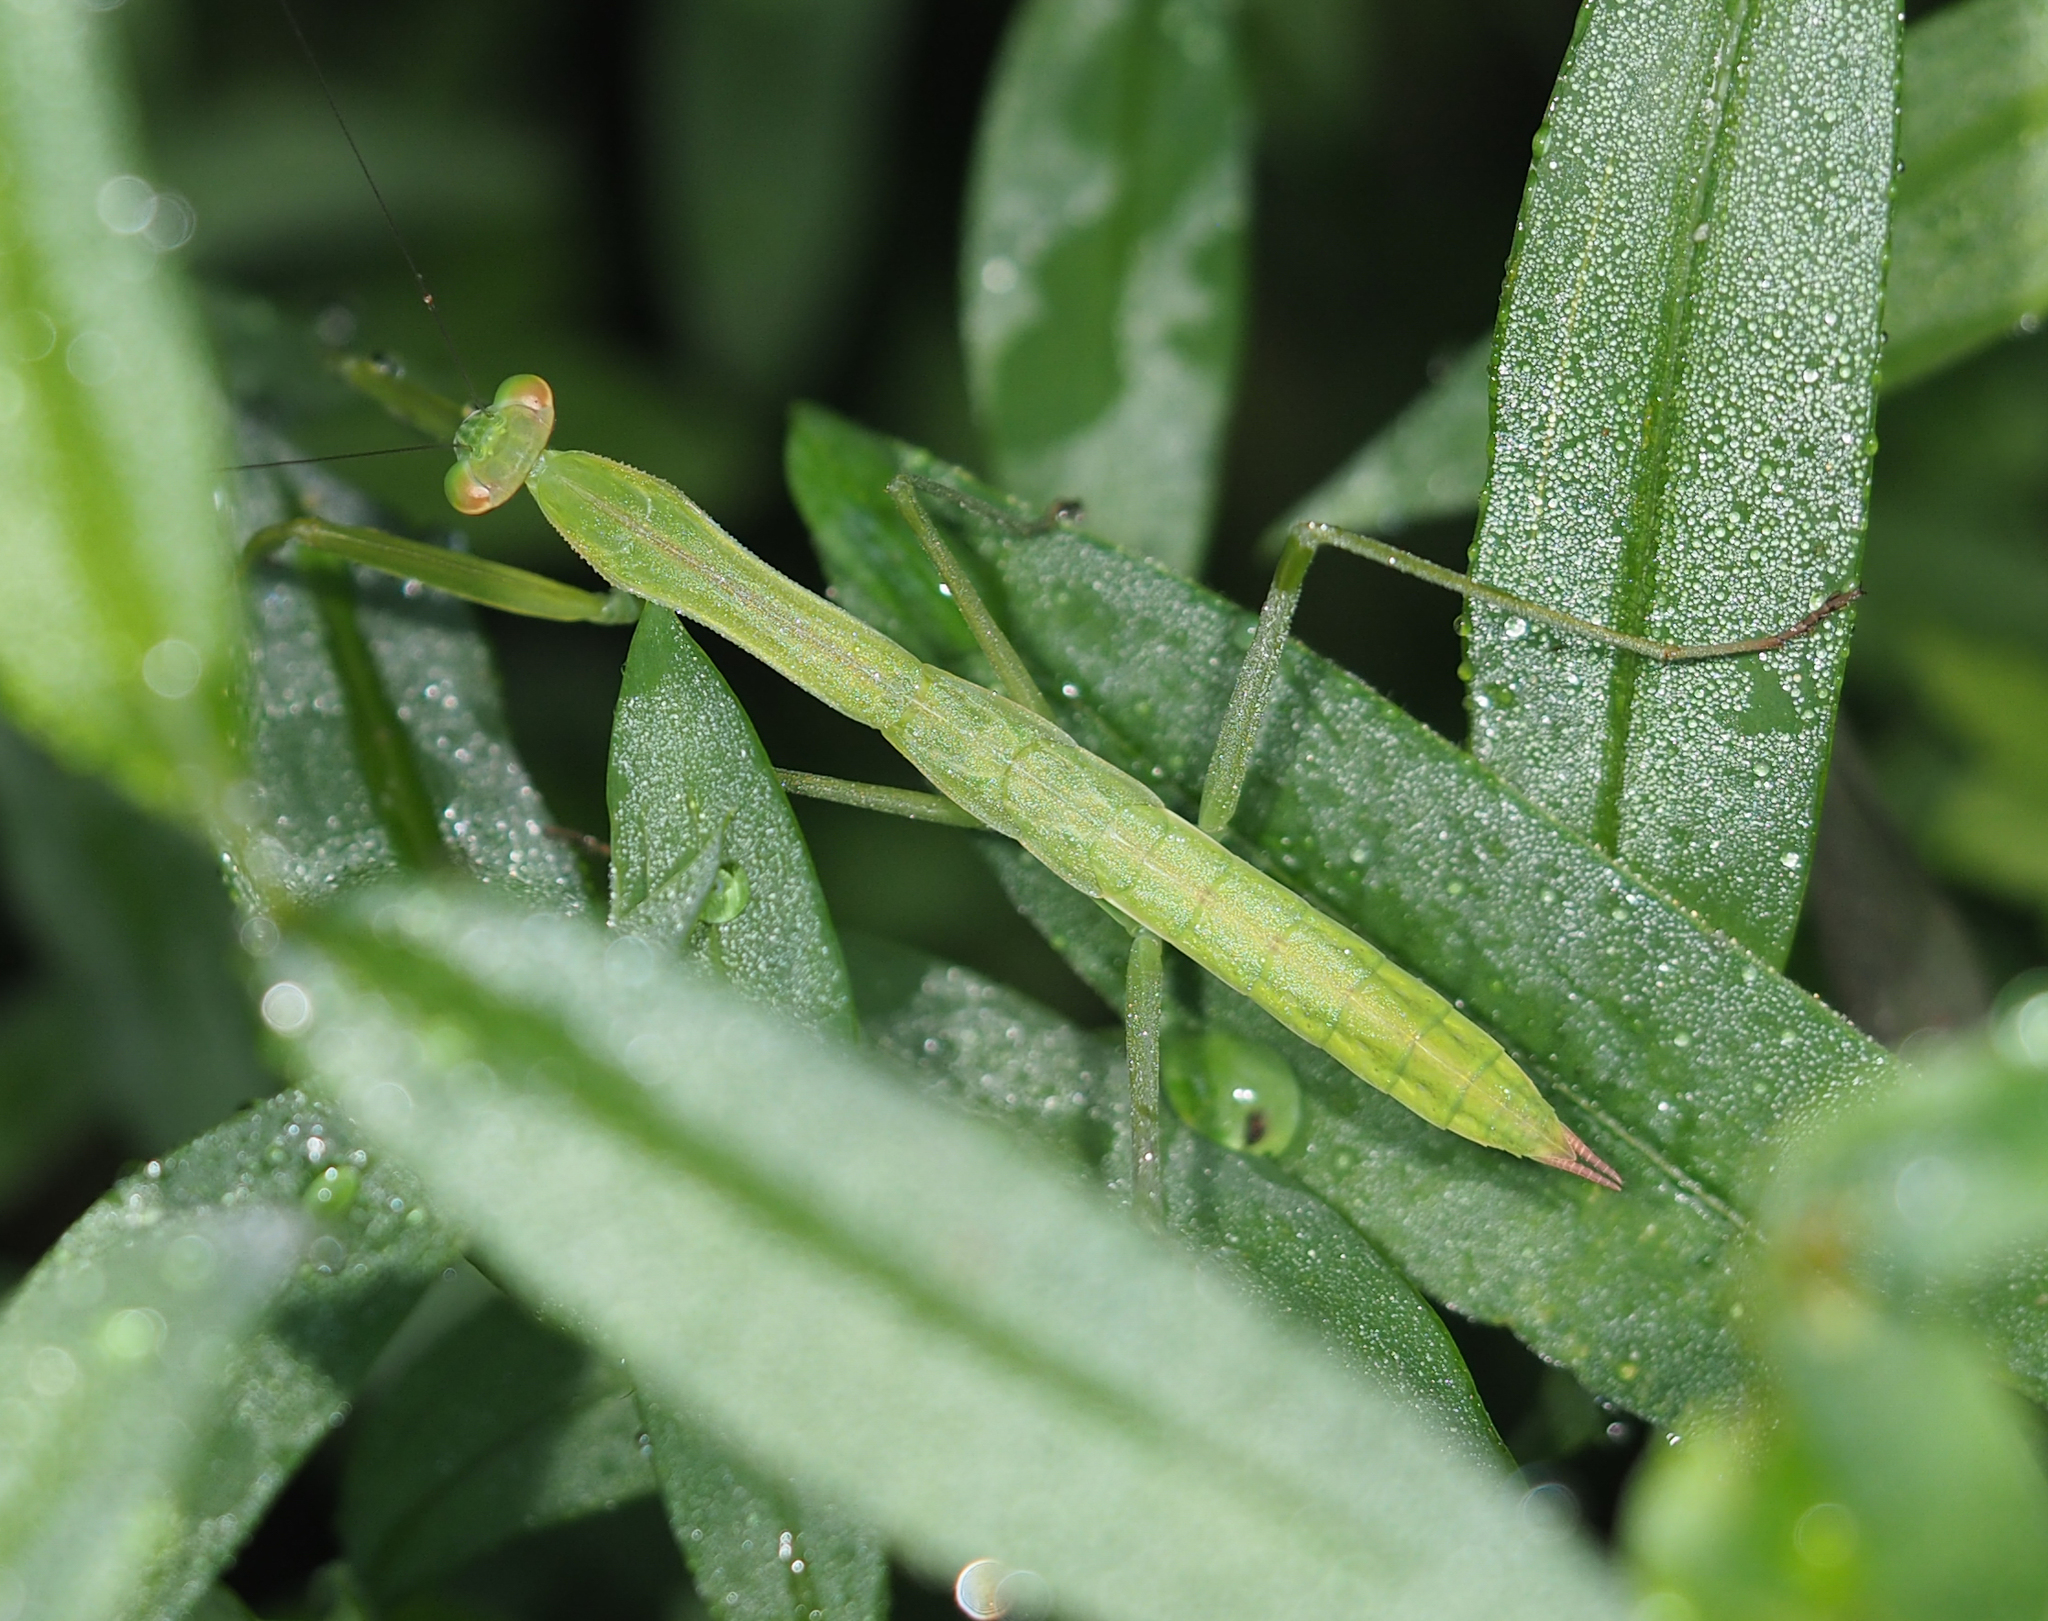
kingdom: Animalia
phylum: Arthropoda
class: Insecta
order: Mantodea
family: Mantidae
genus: Tenodera
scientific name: Tenodera sinensis
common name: Chinese mantis
